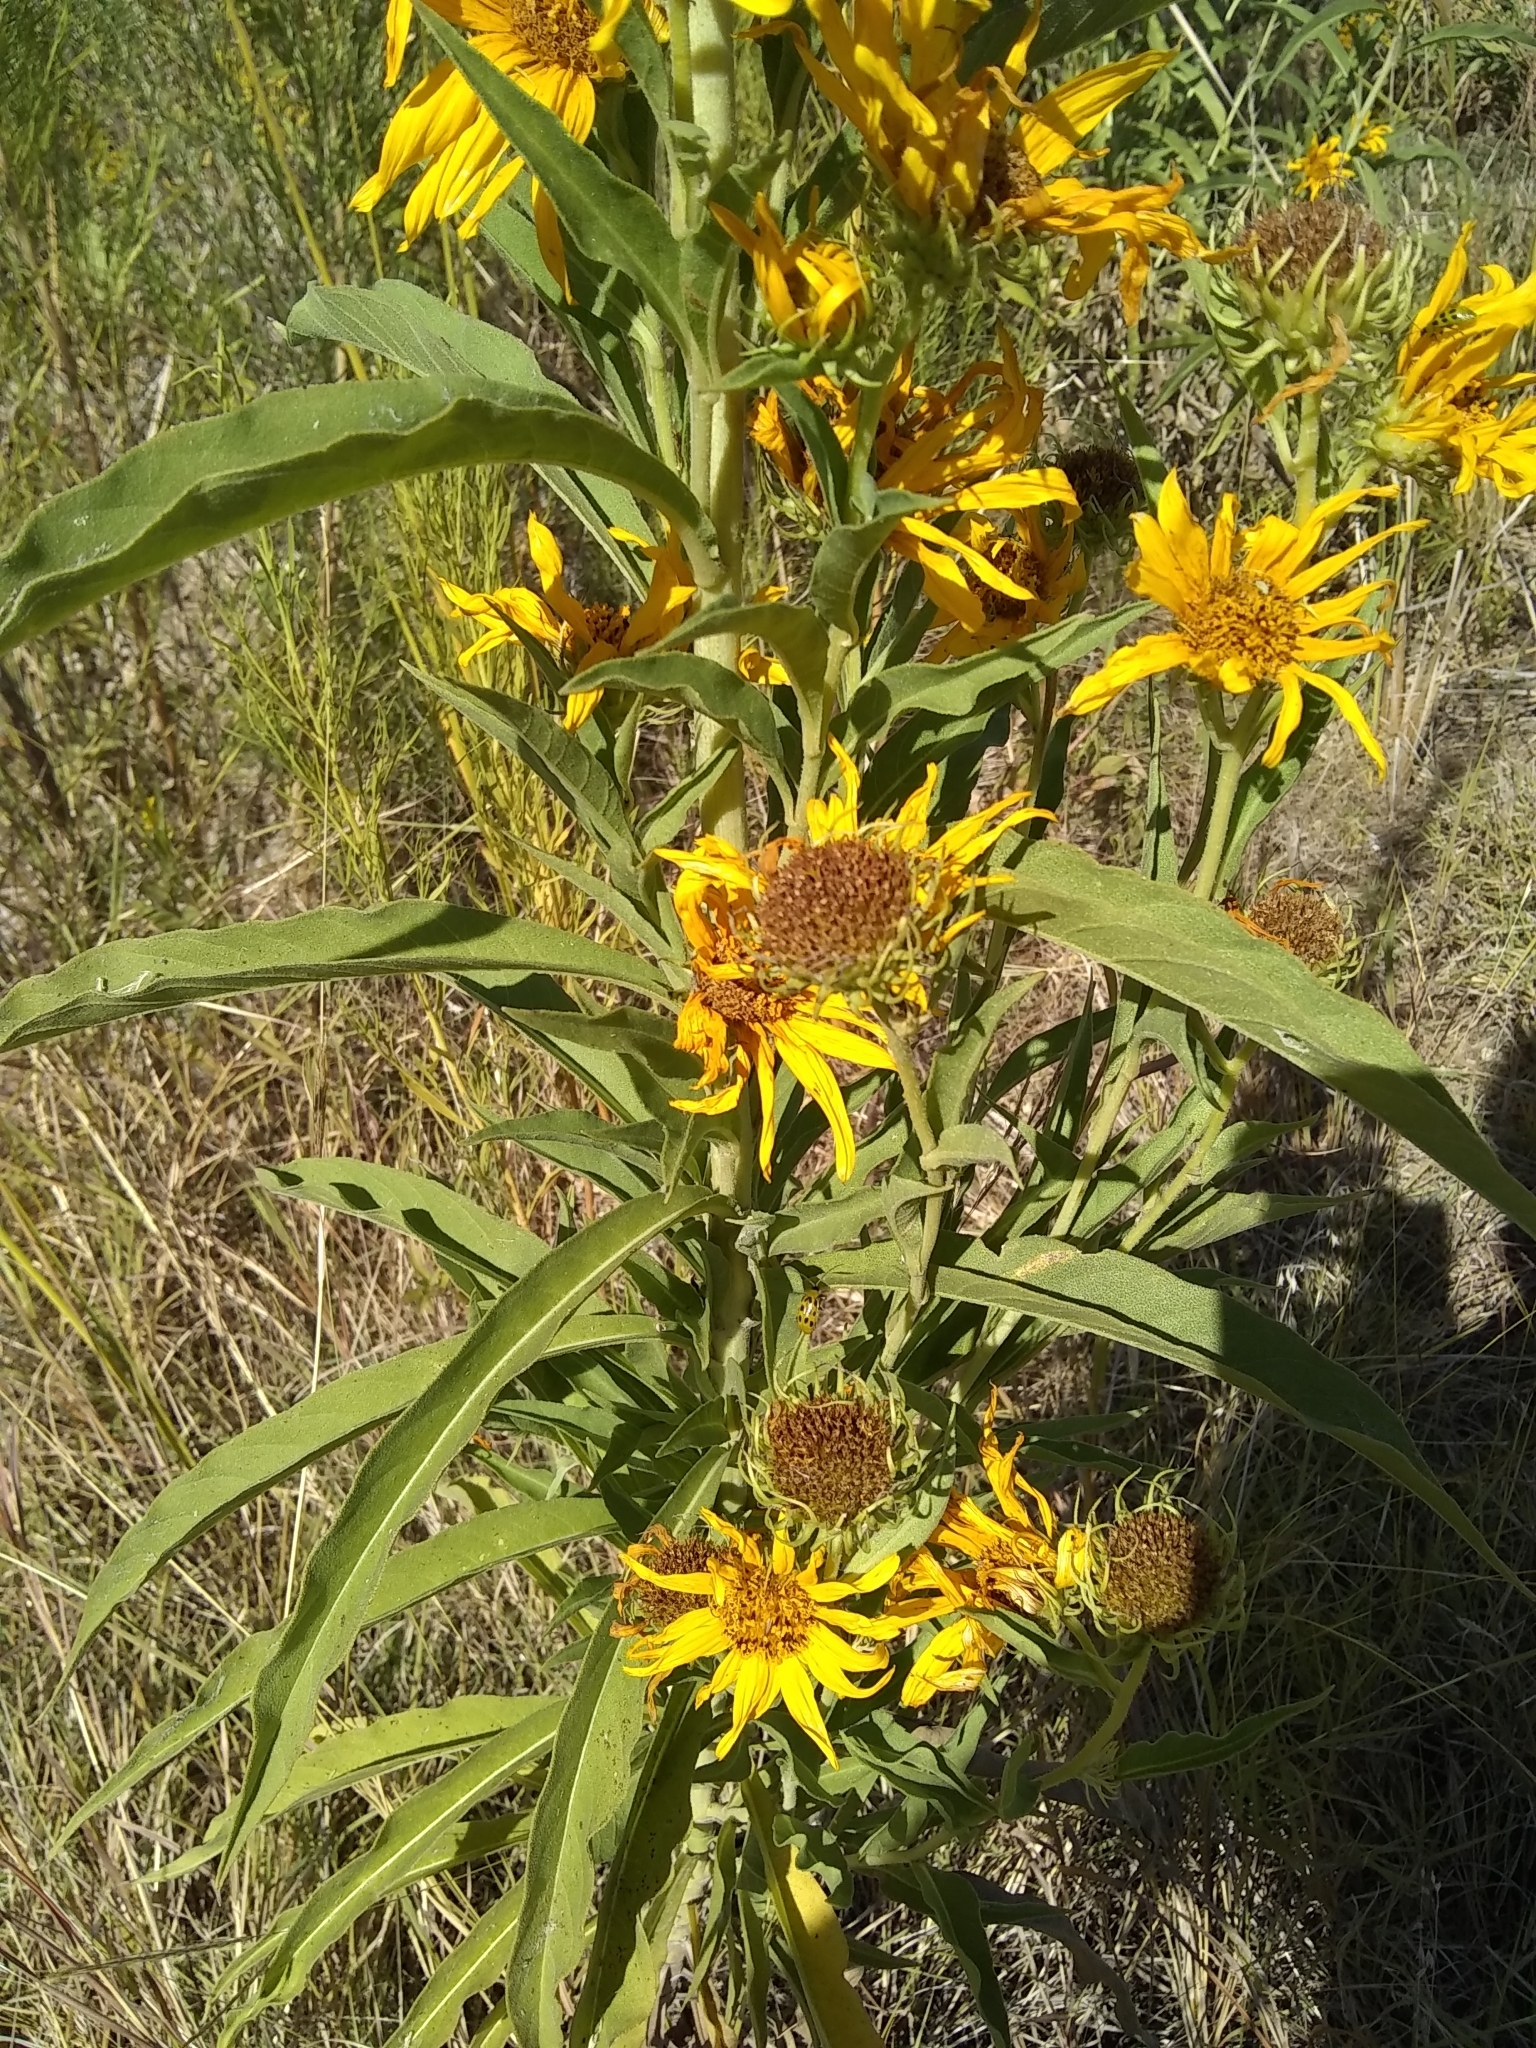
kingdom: Plantae
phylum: Tracheophyta
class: Magnoliopsida
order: Asterales
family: Asteraceae
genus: Helianthus
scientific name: Helianthus maximiliani
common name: Maximilian's sunflower
